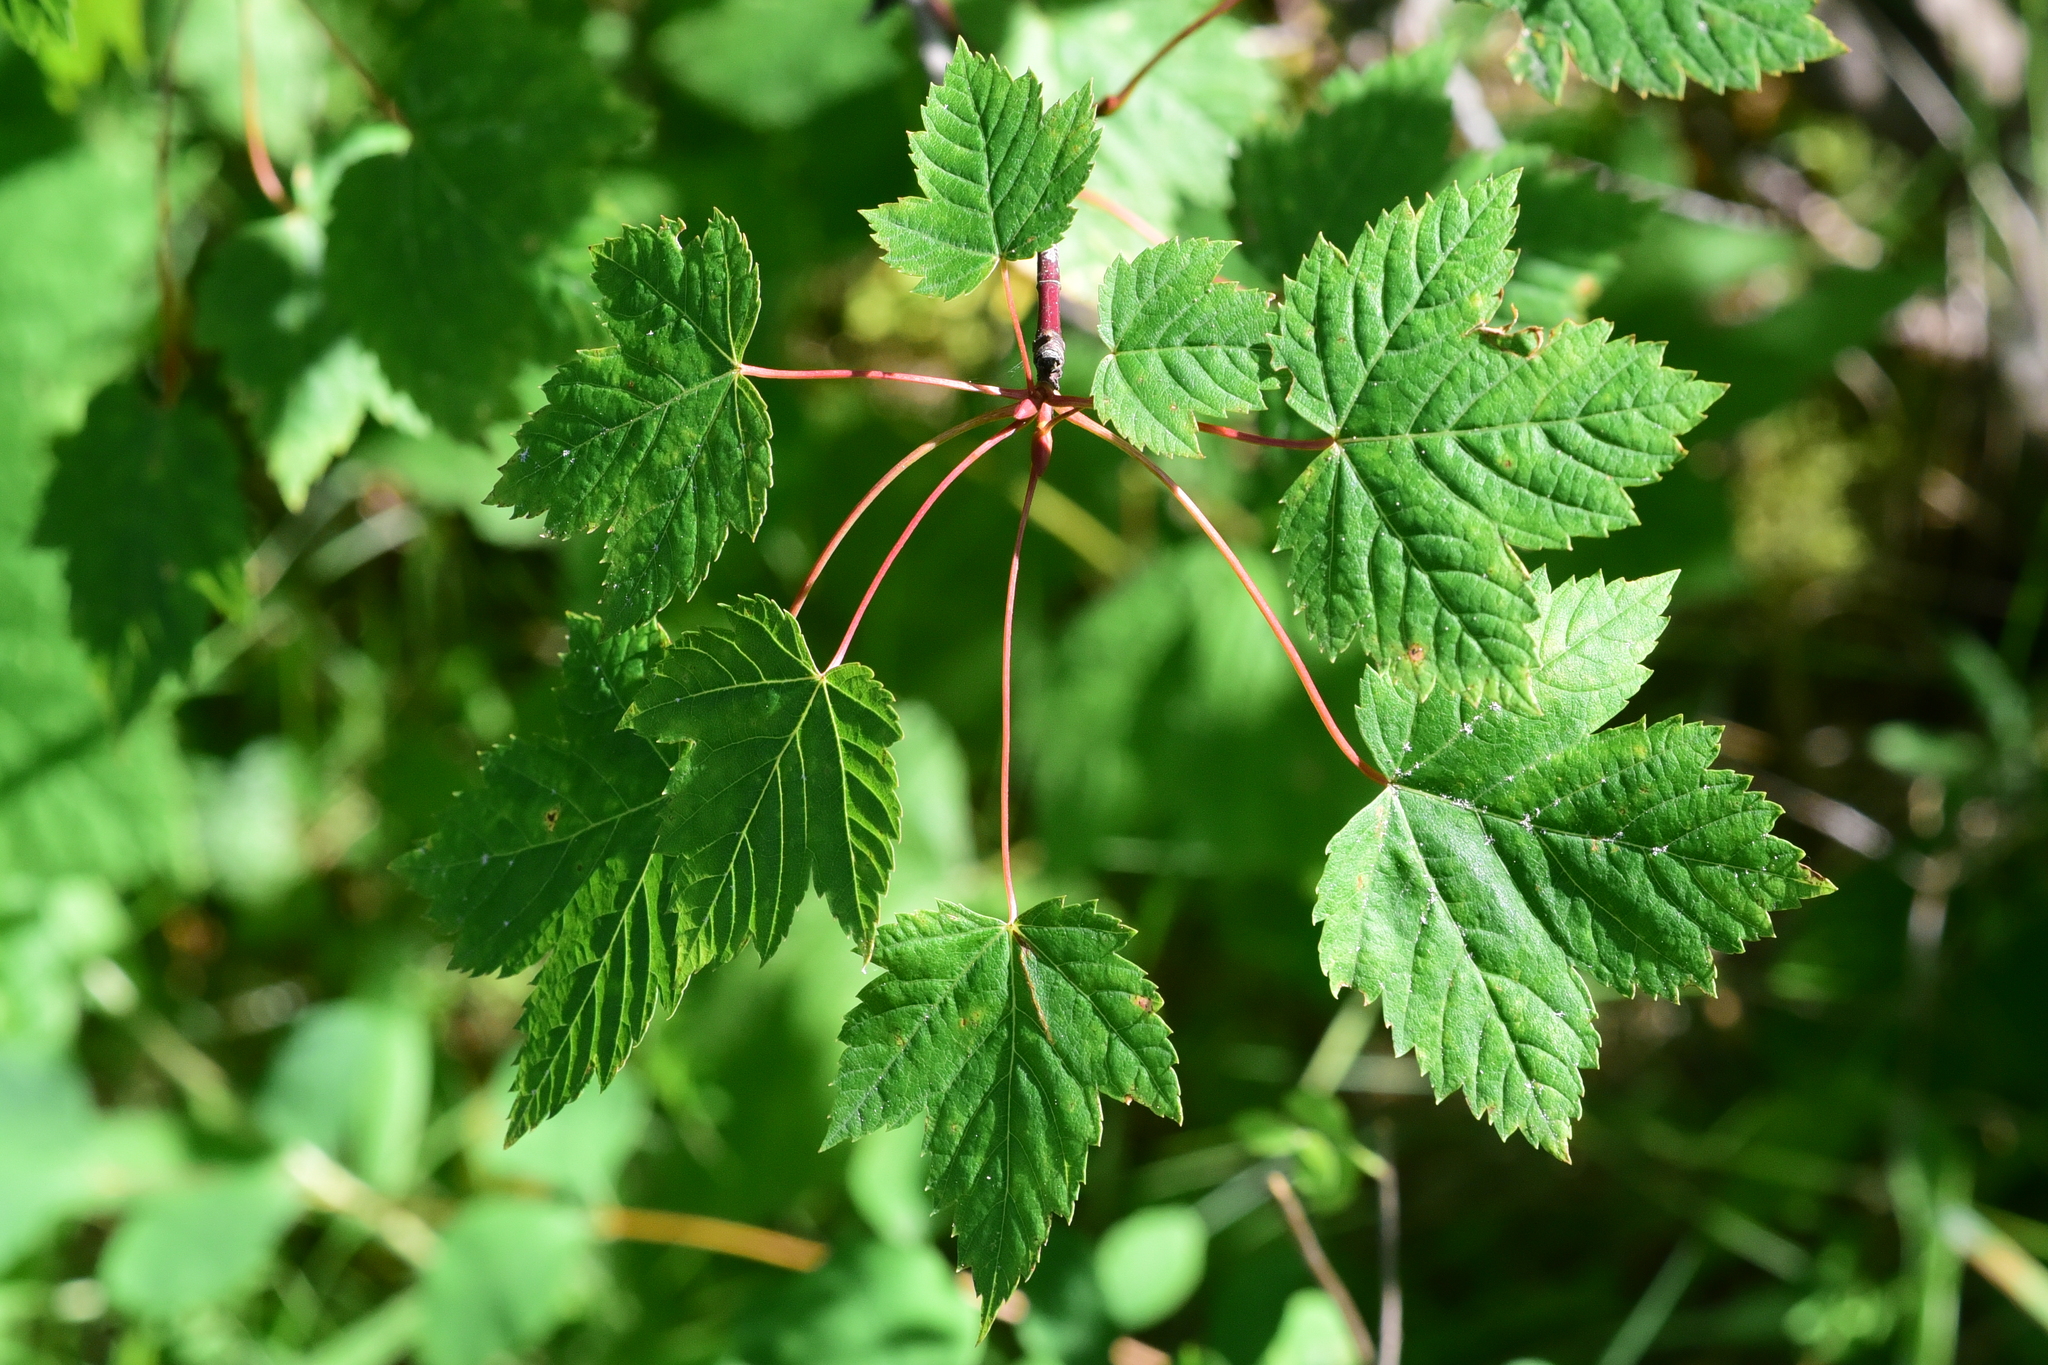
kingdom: Plantae
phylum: Tracheophyta
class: Magnoliopsida
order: Sapindales
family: Sapindaceae
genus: Acer
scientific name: Acer glabrum
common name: Rocky mountain maple
